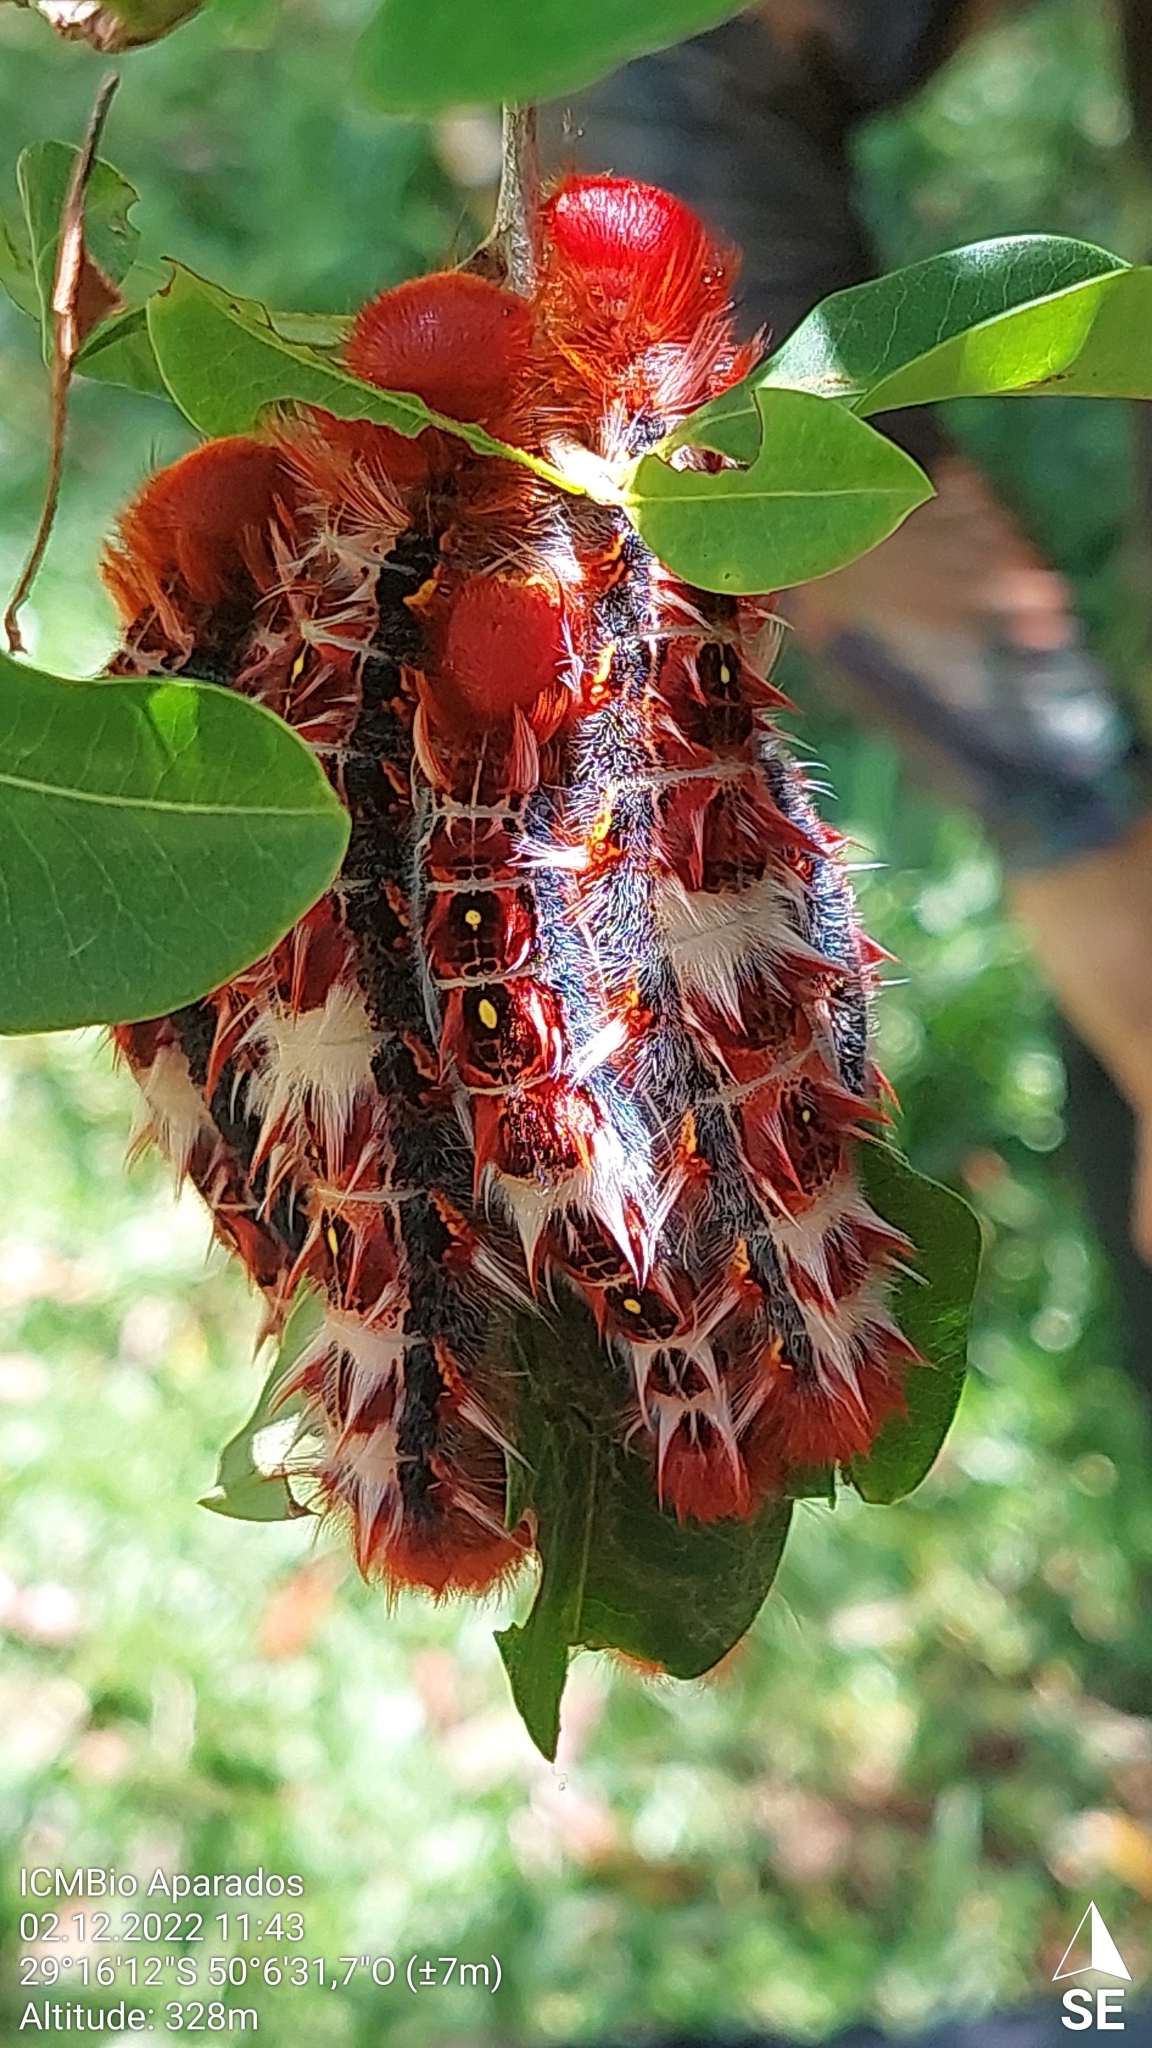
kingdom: Animalia
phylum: Arthropoda
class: Insecta
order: Lepidoptera
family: Nymphalidae
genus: Morpho
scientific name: Morpho epistrophus
